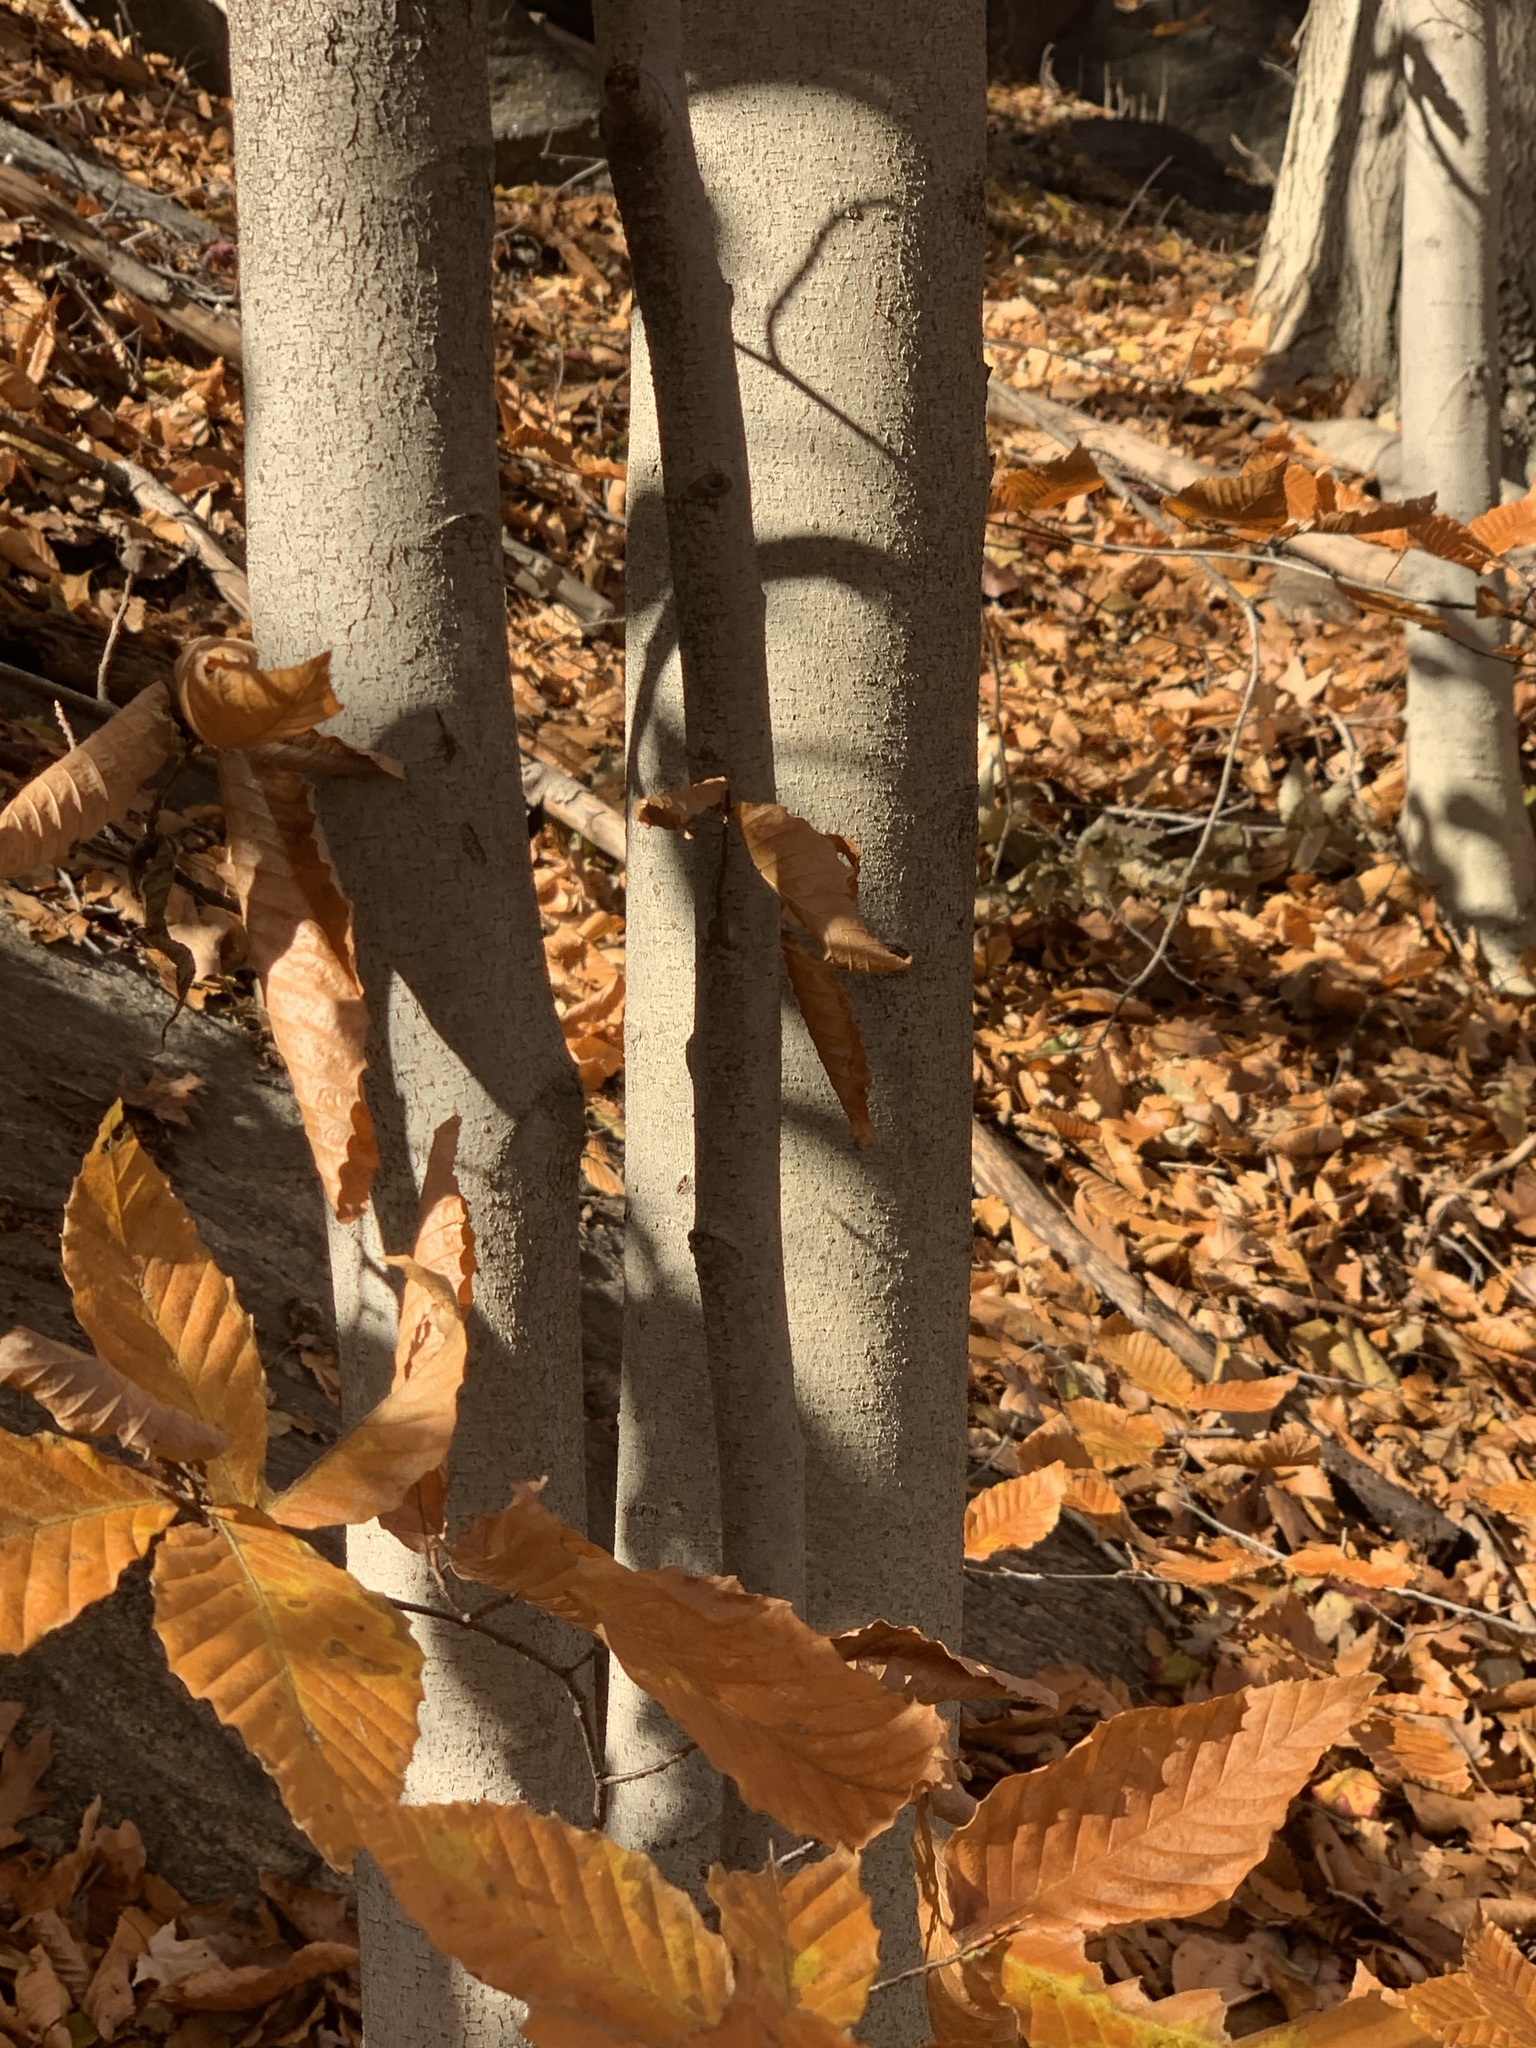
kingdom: Plantae
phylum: Tracheophyta
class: Magnoliopsida
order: Fagales
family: Fagaceae
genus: Fagus
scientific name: Fagus grandifolia
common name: American beech
